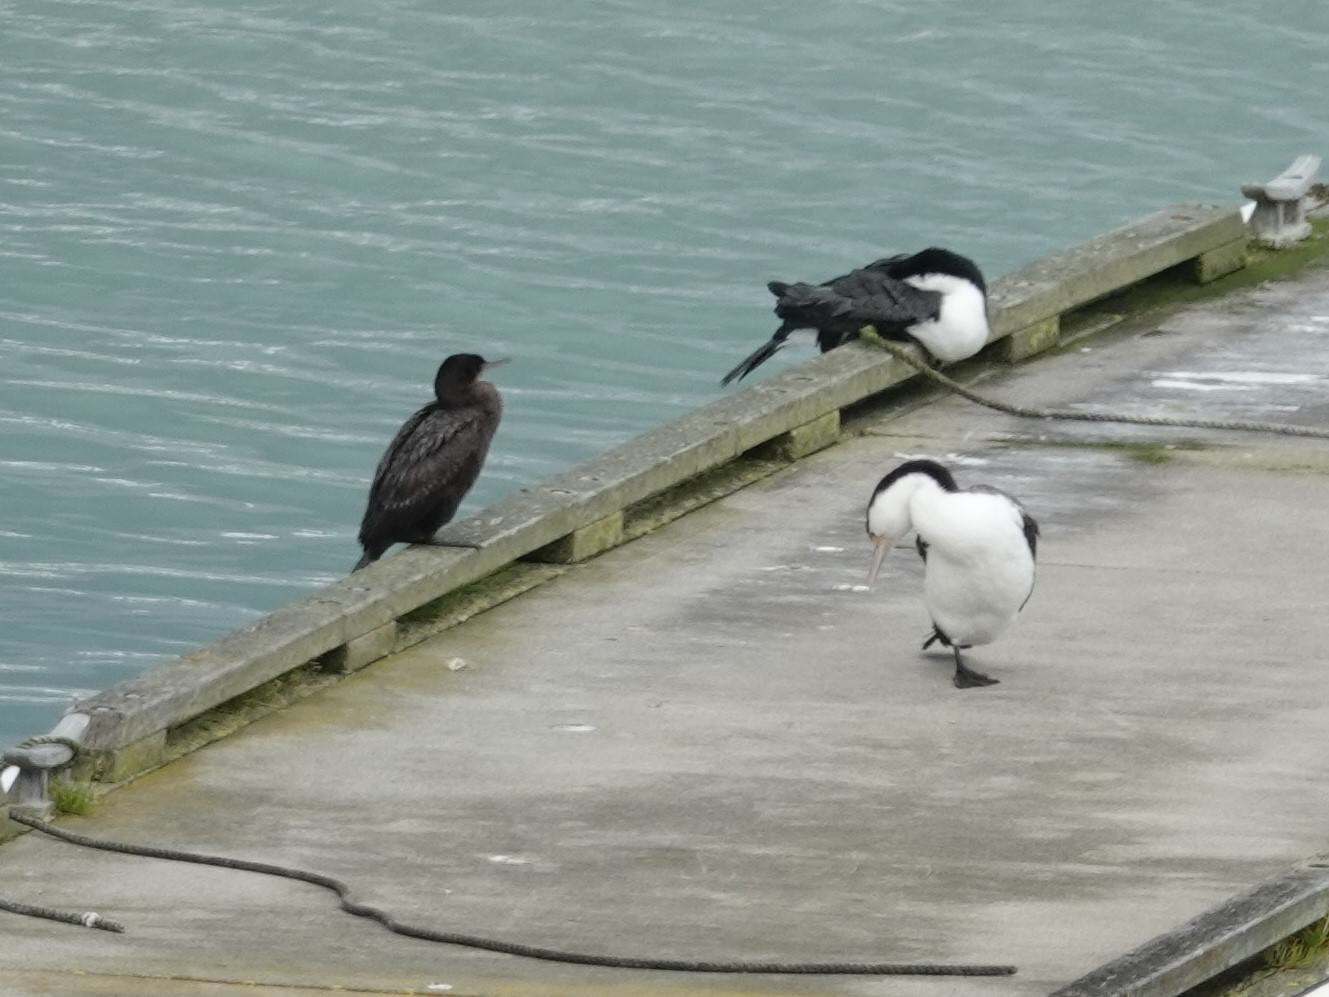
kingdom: Animalia
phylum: Chordata
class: Aves
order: Suliformes
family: Phalacrocoracidae
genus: Phalacrocorax
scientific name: Phalacrocorax sulcirostris
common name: Little black cormorant
